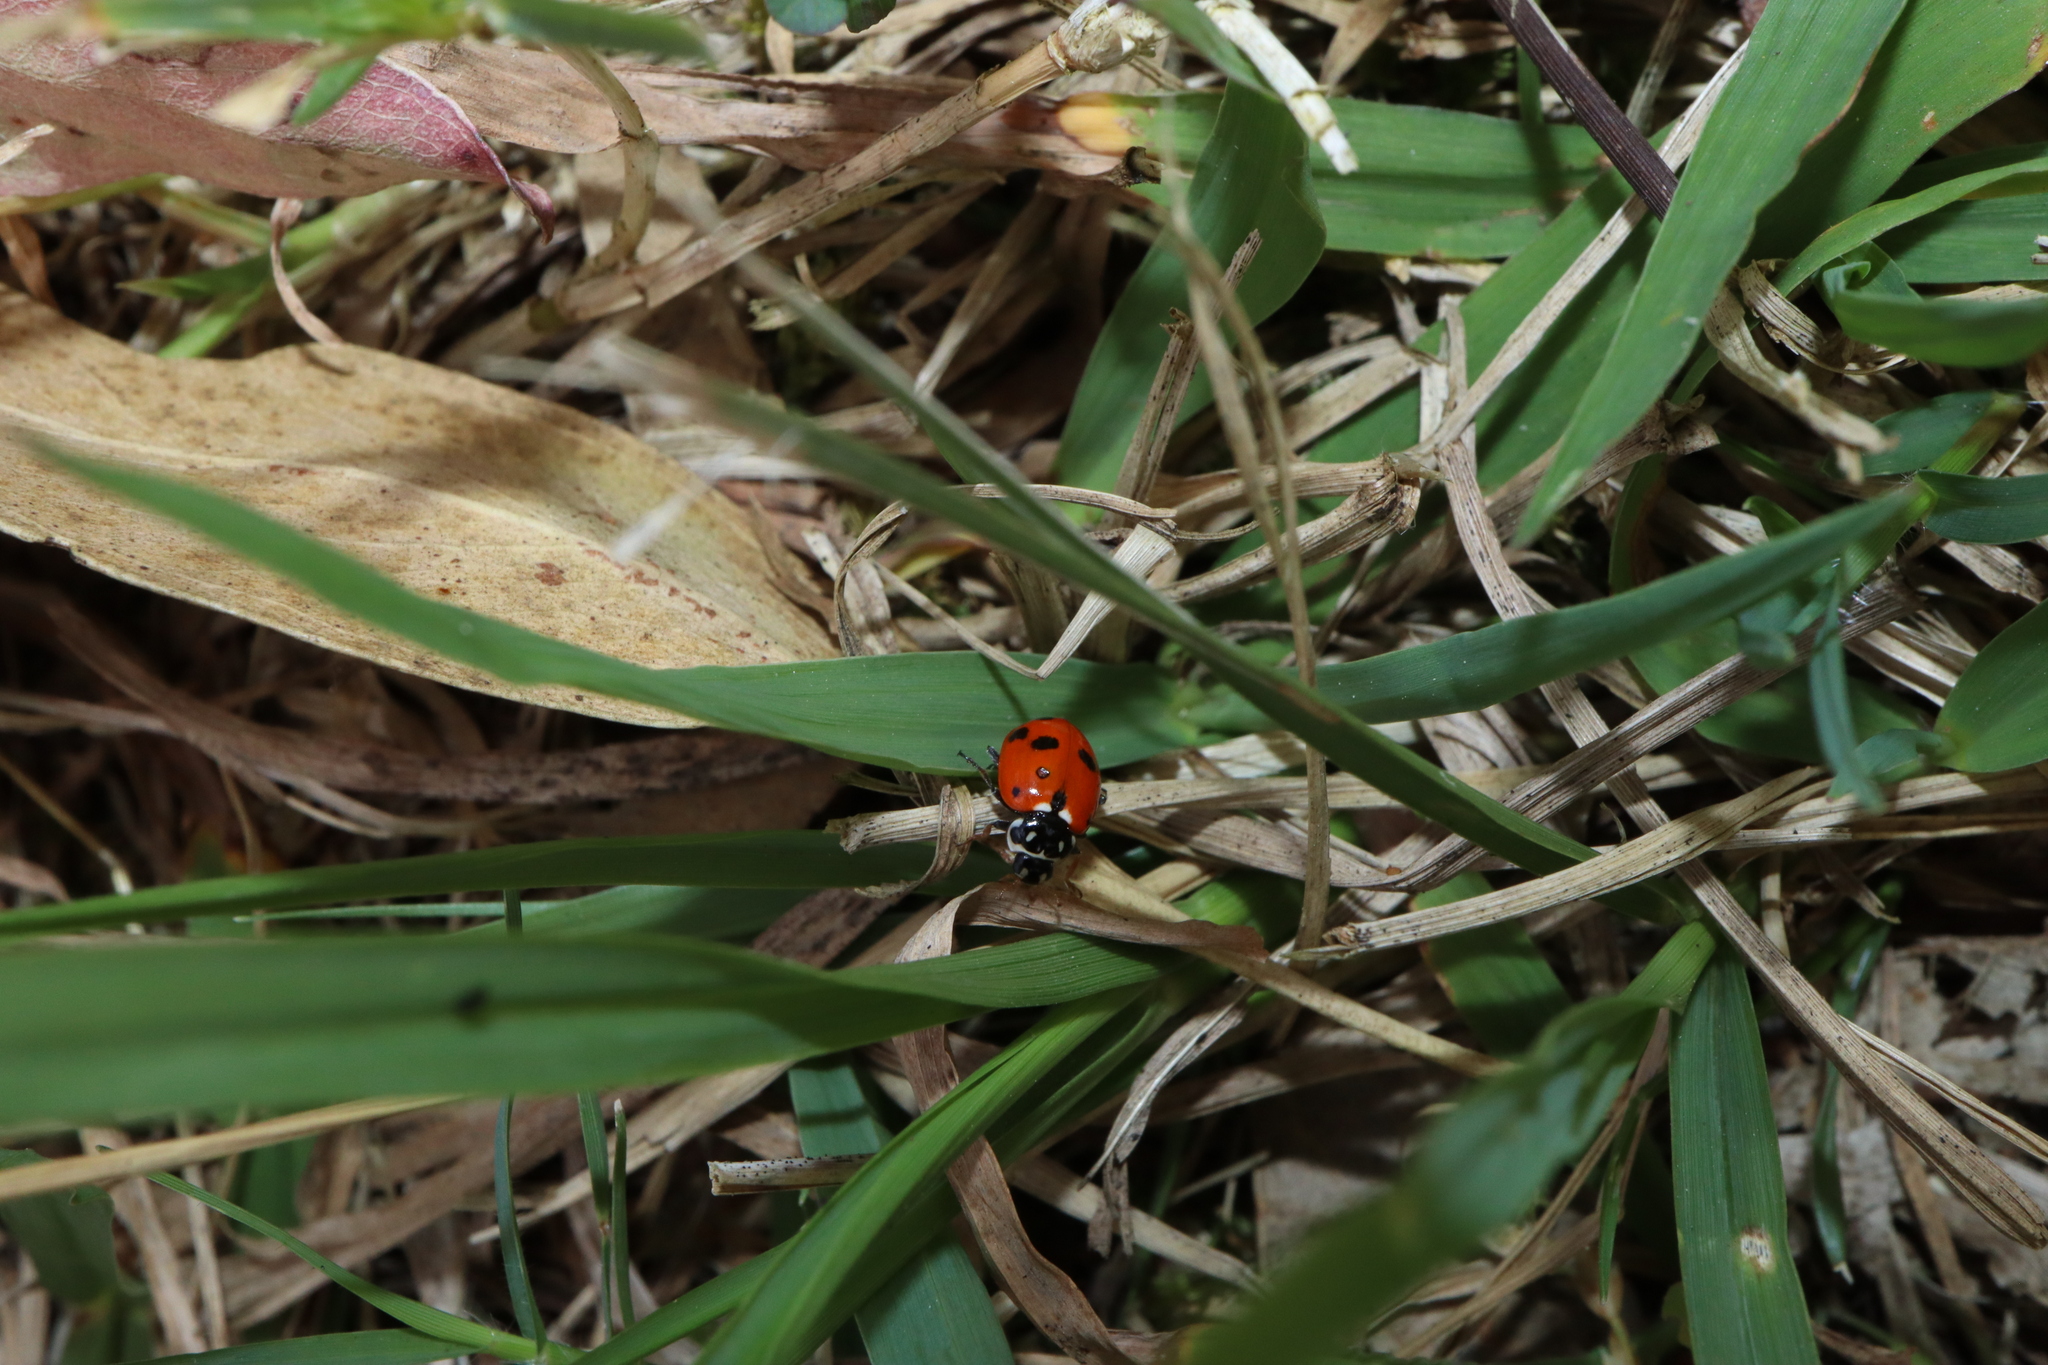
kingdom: Animalia
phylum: Arthropoda
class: Insecta
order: Coleoptera
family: Coccinellidae
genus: Hippodamia
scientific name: Hippodamia variegata
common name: Ladybird beetle
